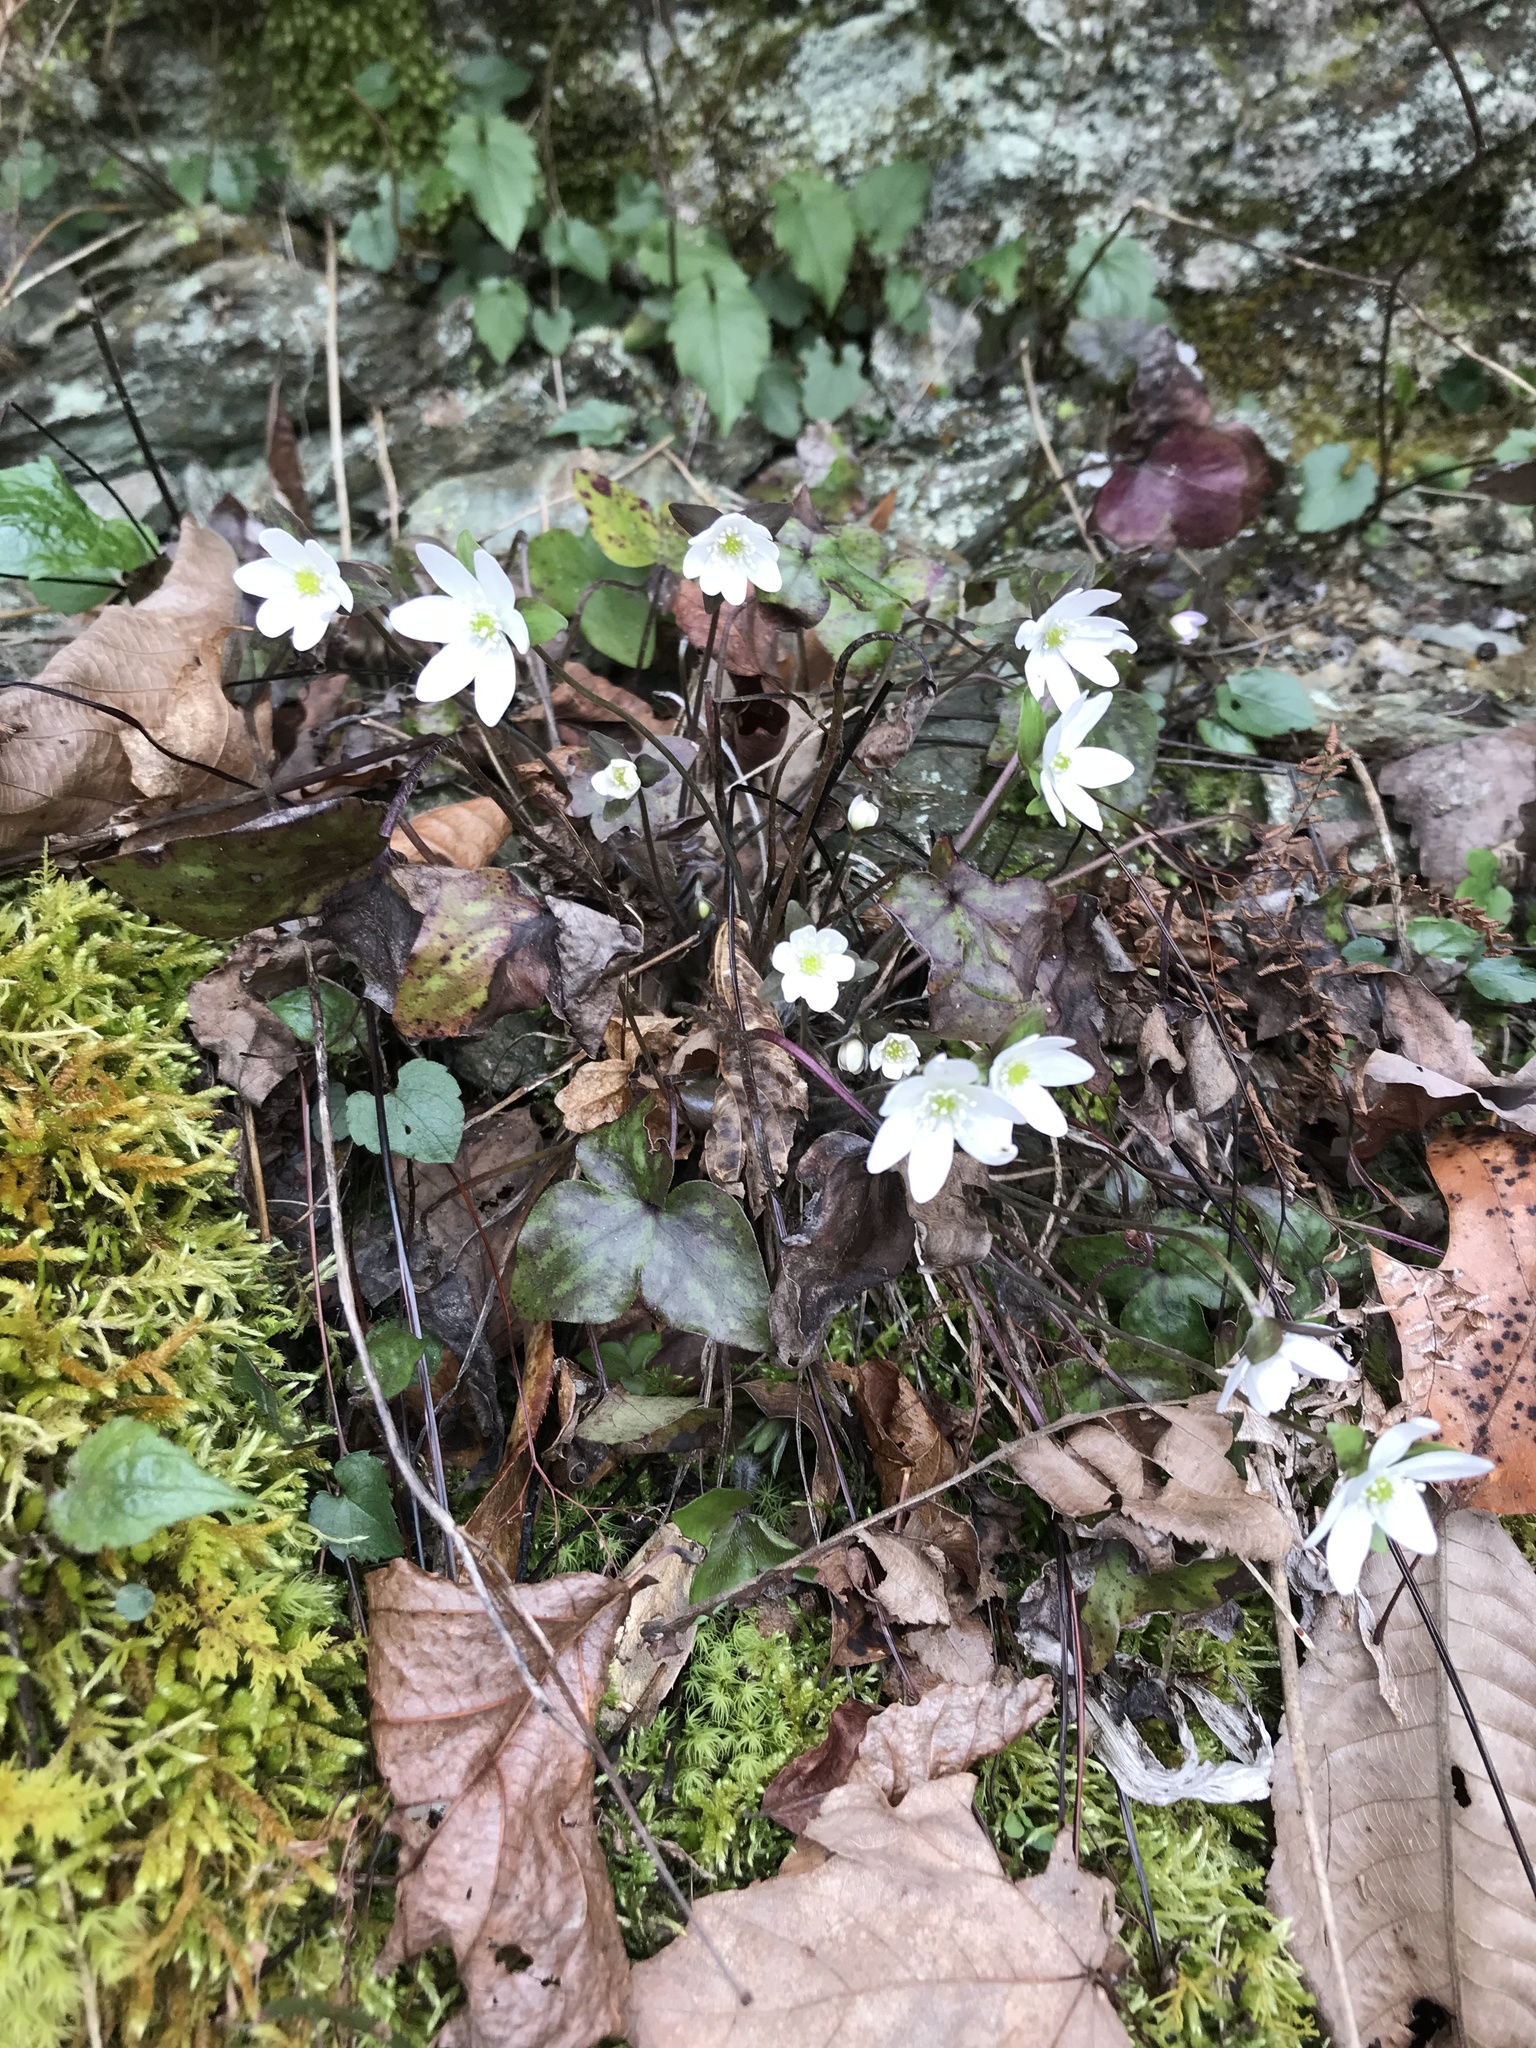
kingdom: Plantae
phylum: Tracheophyta
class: Magnoliopsida
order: Ranunculales
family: Ranunculaceae
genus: Hepatica
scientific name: Hepatica acutiloba
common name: Sharp-lobed hepatica
